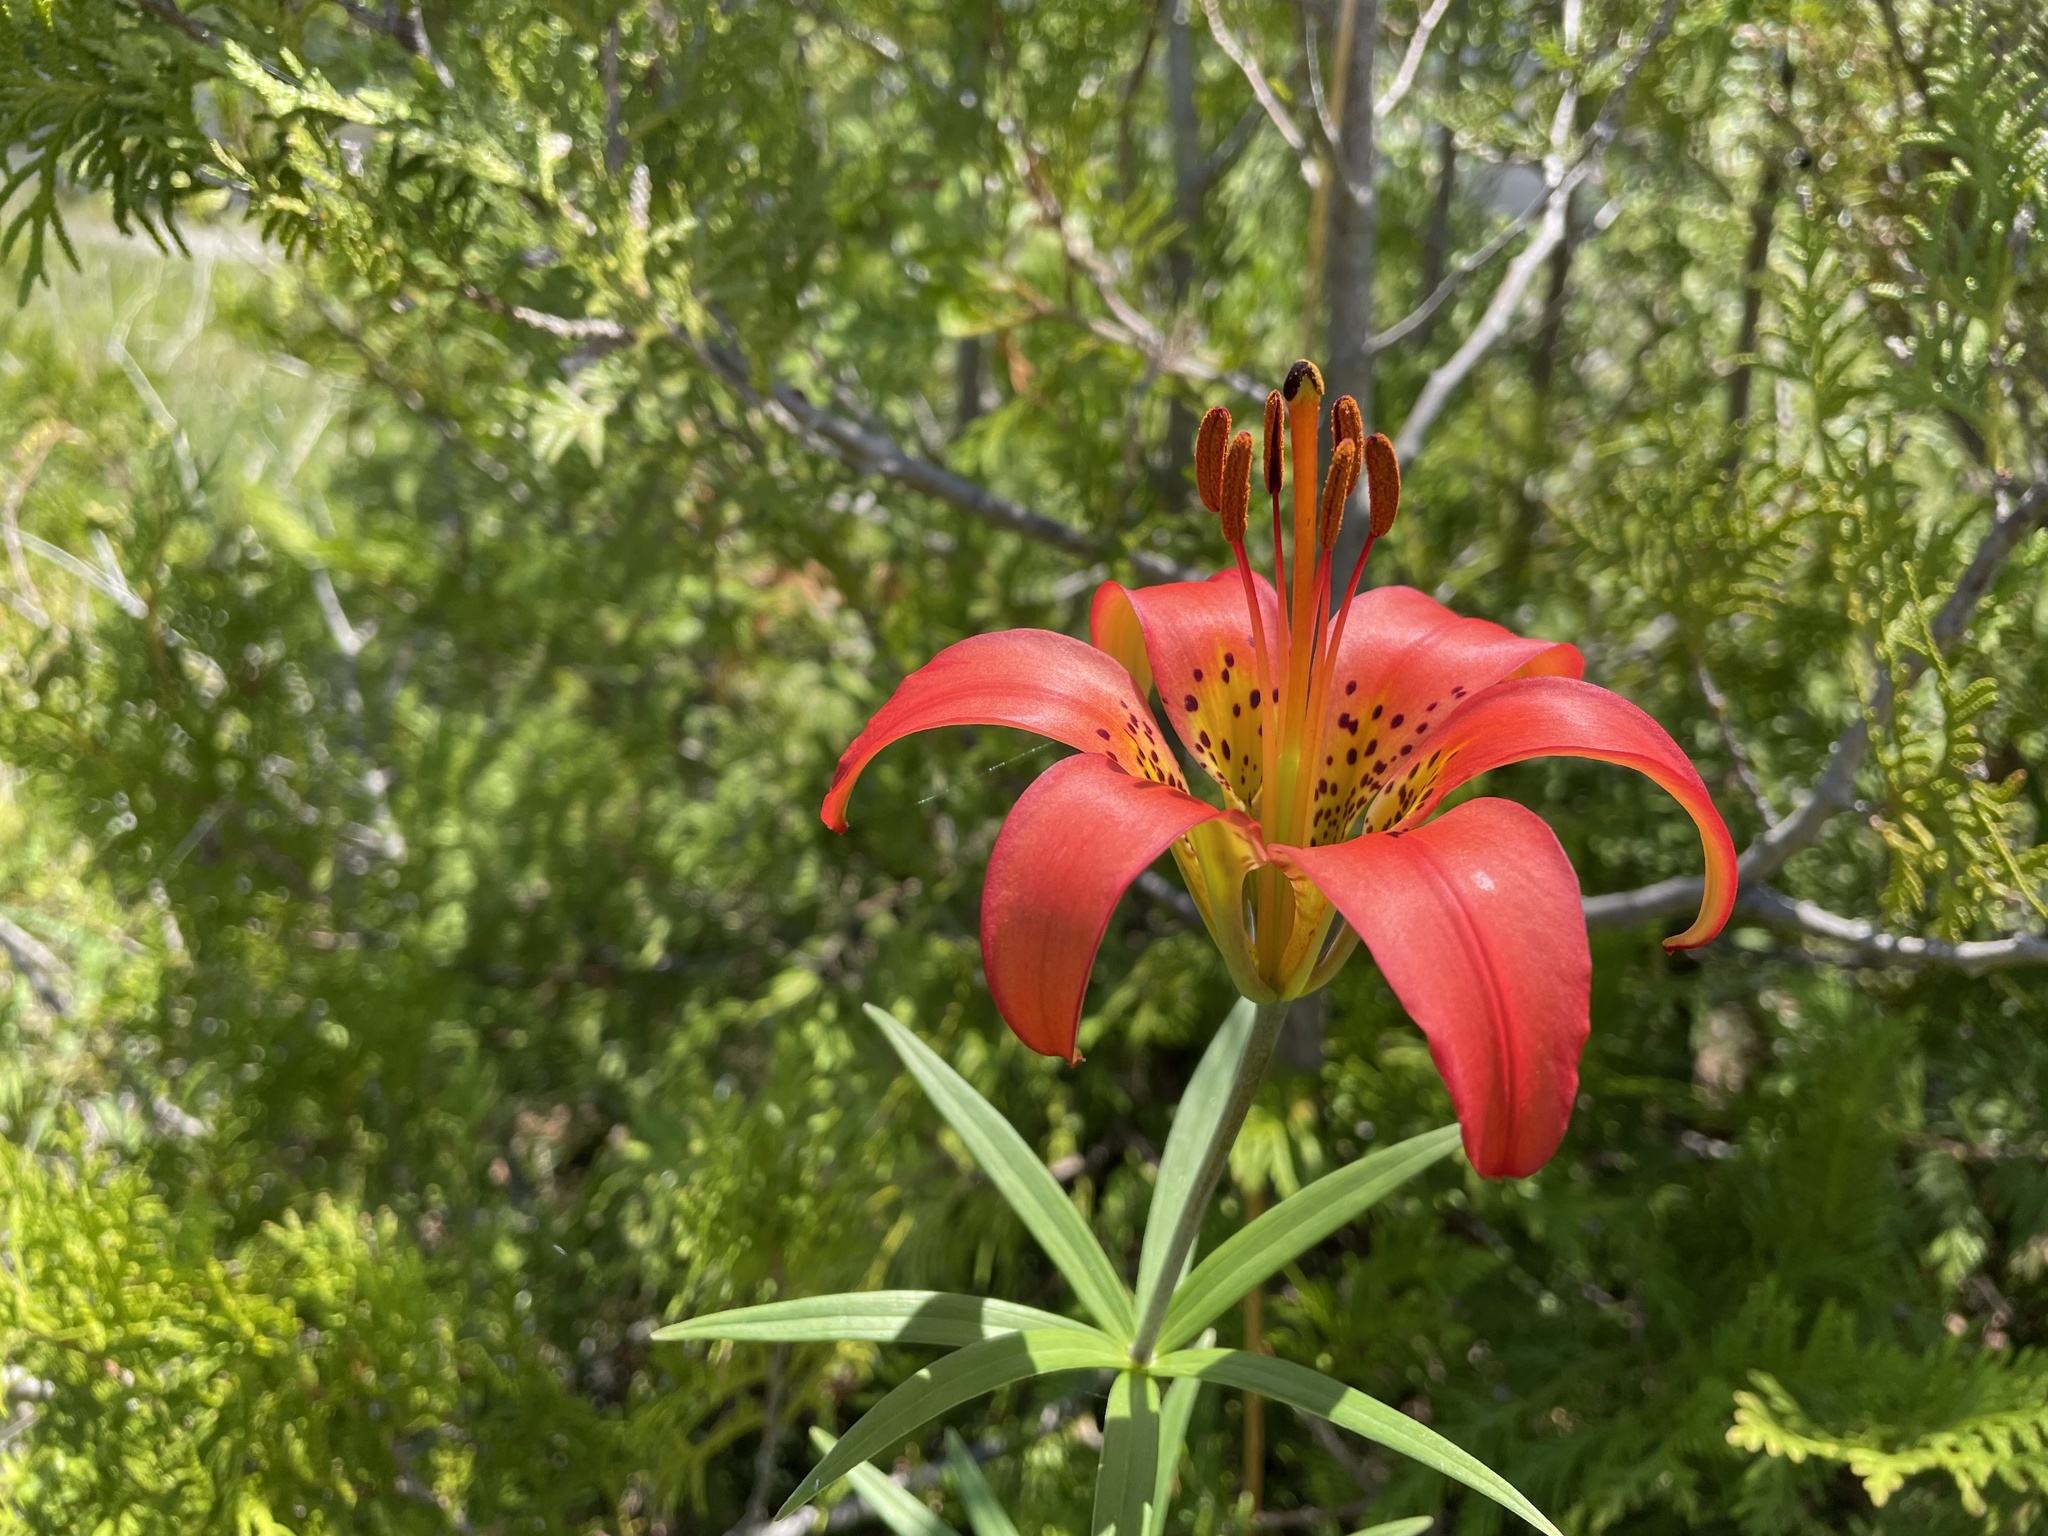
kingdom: Plantae
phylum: Tracheophyta
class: Liliopsida
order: Liliales
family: Liliaceae
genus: Lilium
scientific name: Lilium philadelphicum
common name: Red lily
